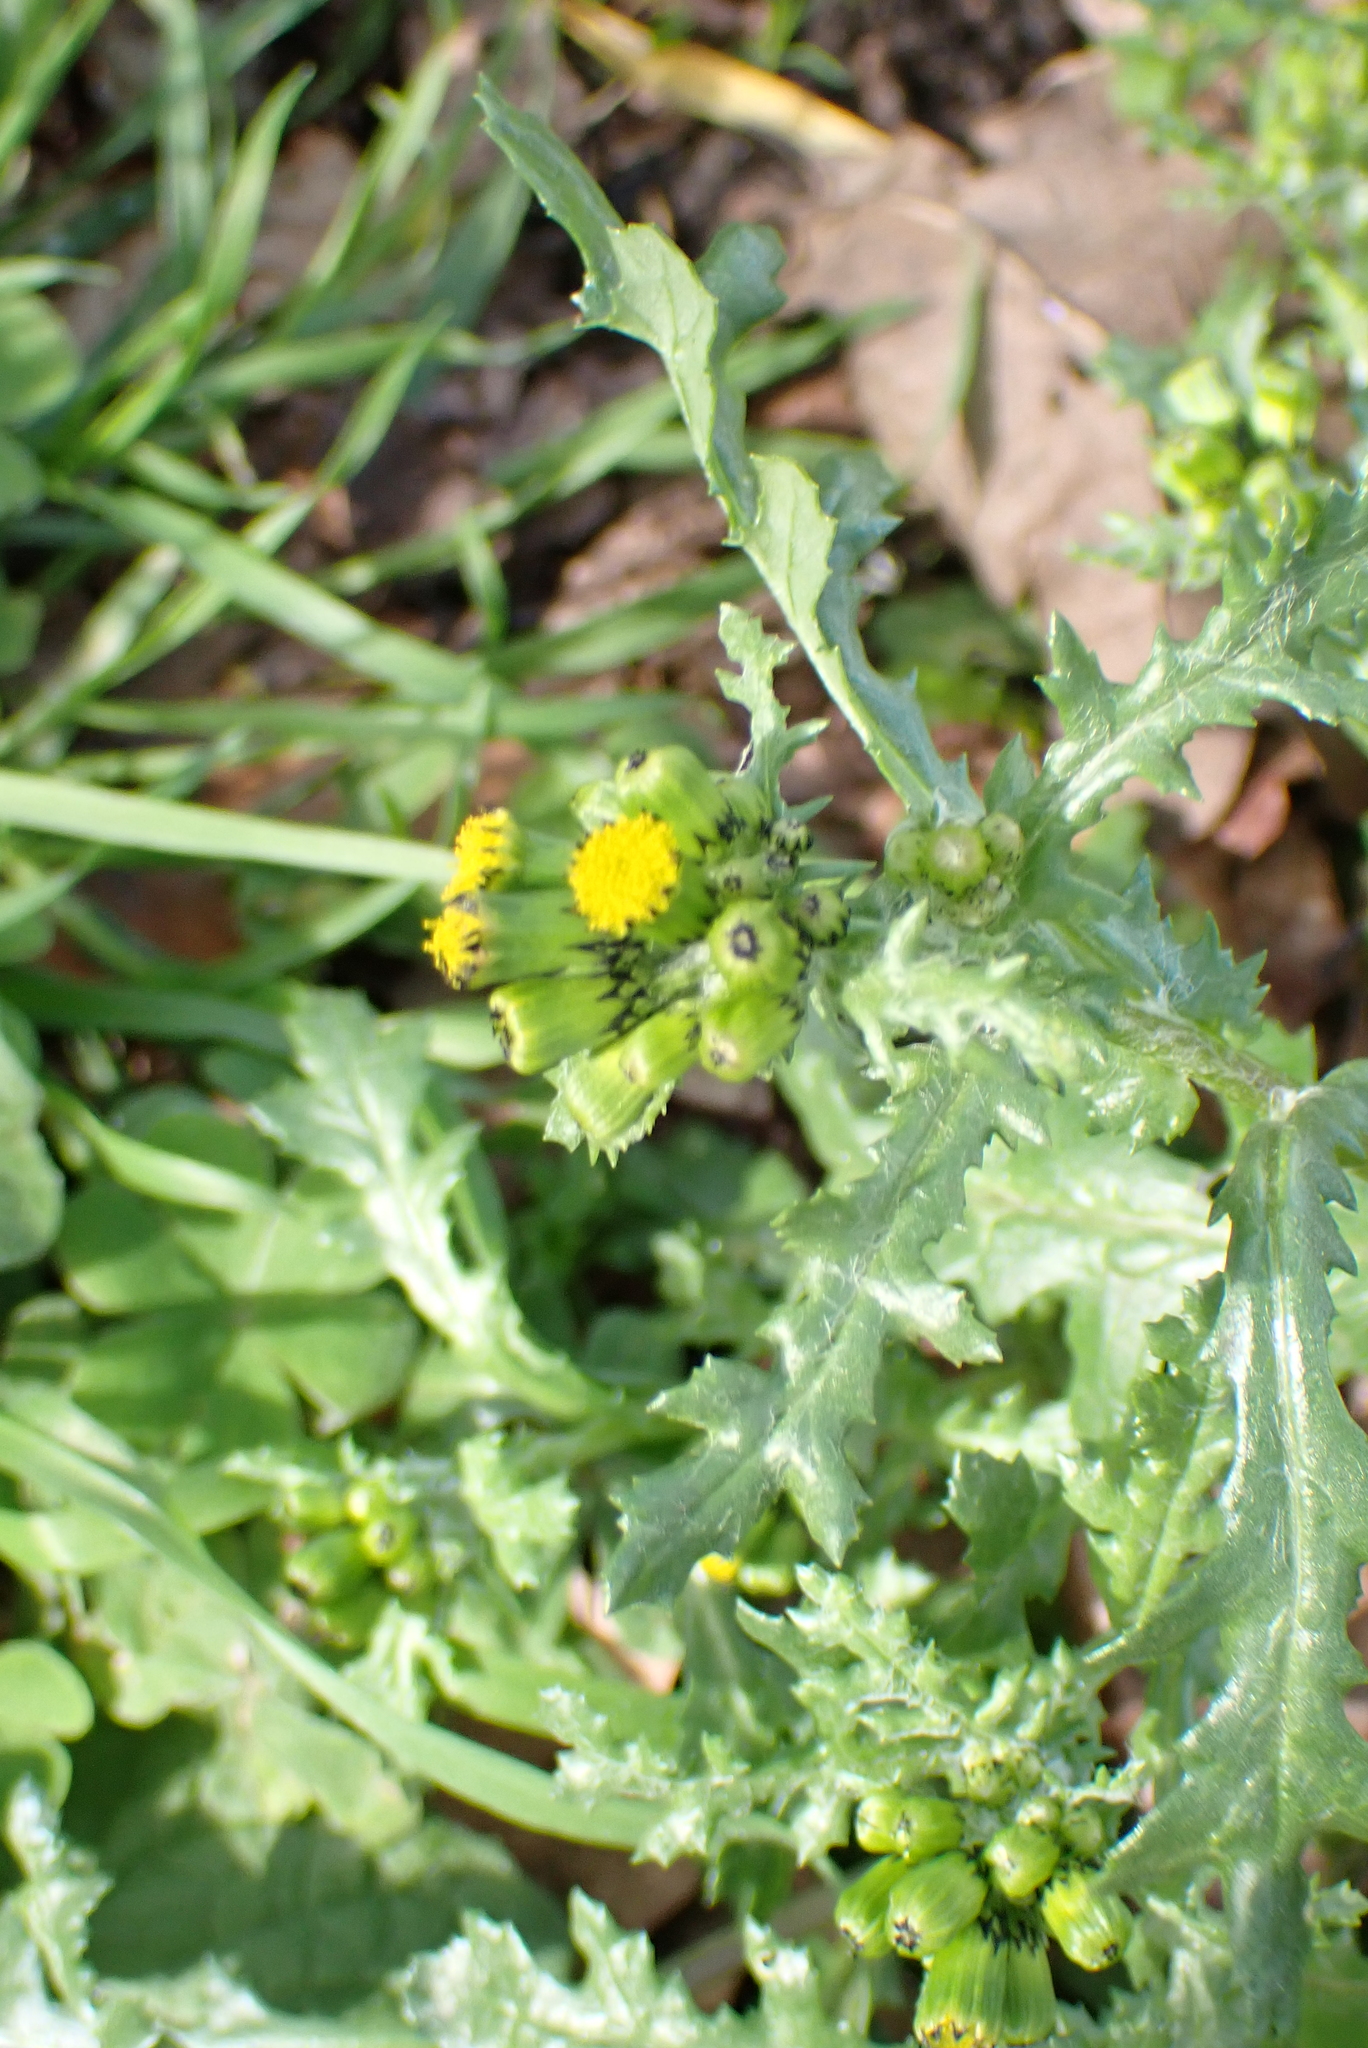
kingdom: Plantae
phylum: Tracheophyta
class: Magnoliopsida
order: Asterales
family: Asteraceae
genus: Senecio
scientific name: Senecio vulgaris
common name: Old-man-in-the-spring
